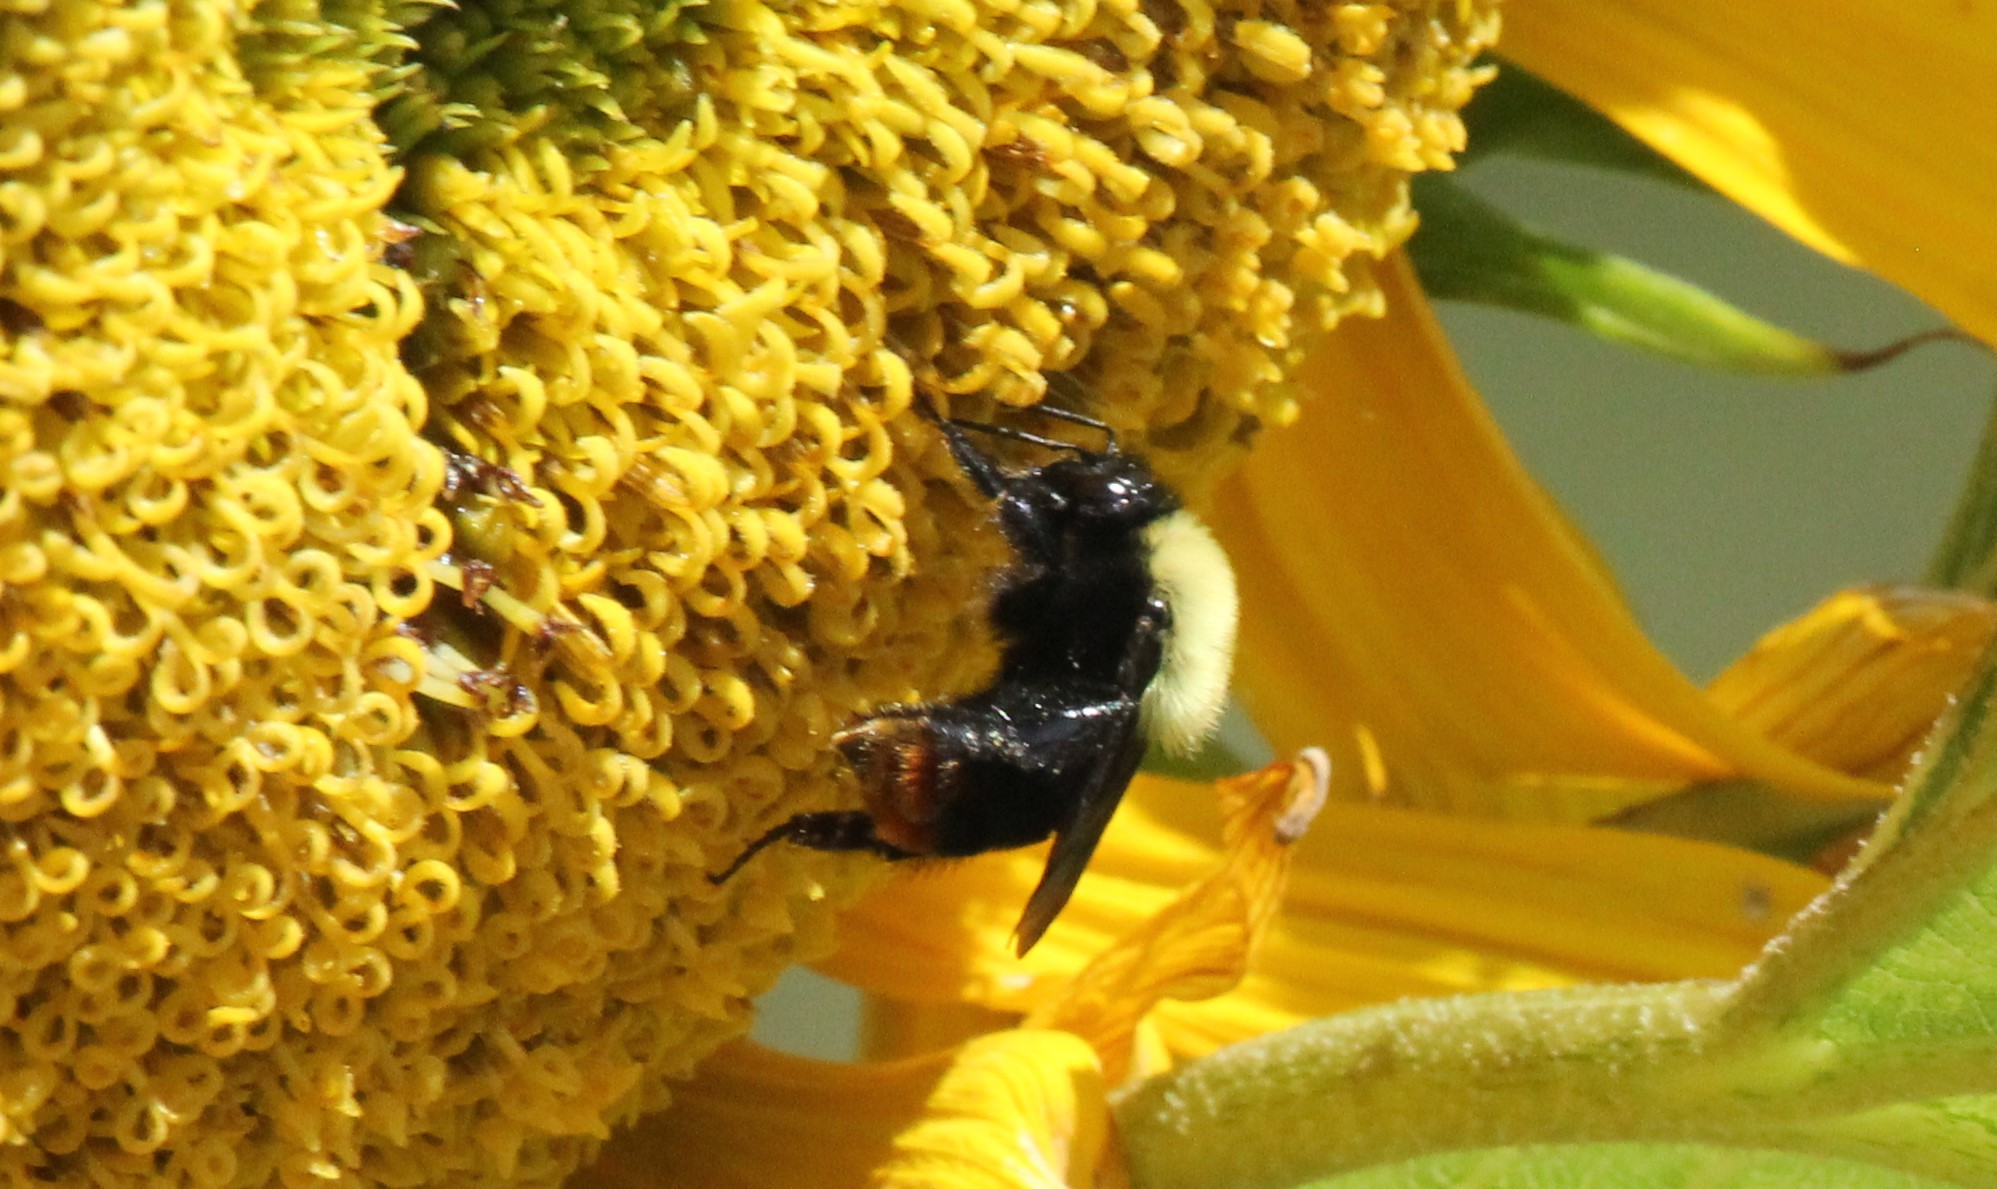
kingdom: Animalia
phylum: Arthropoda
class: Insecta
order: Hymenoptera
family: Apidae
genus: Bombus
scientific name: Bombus bellicosus
